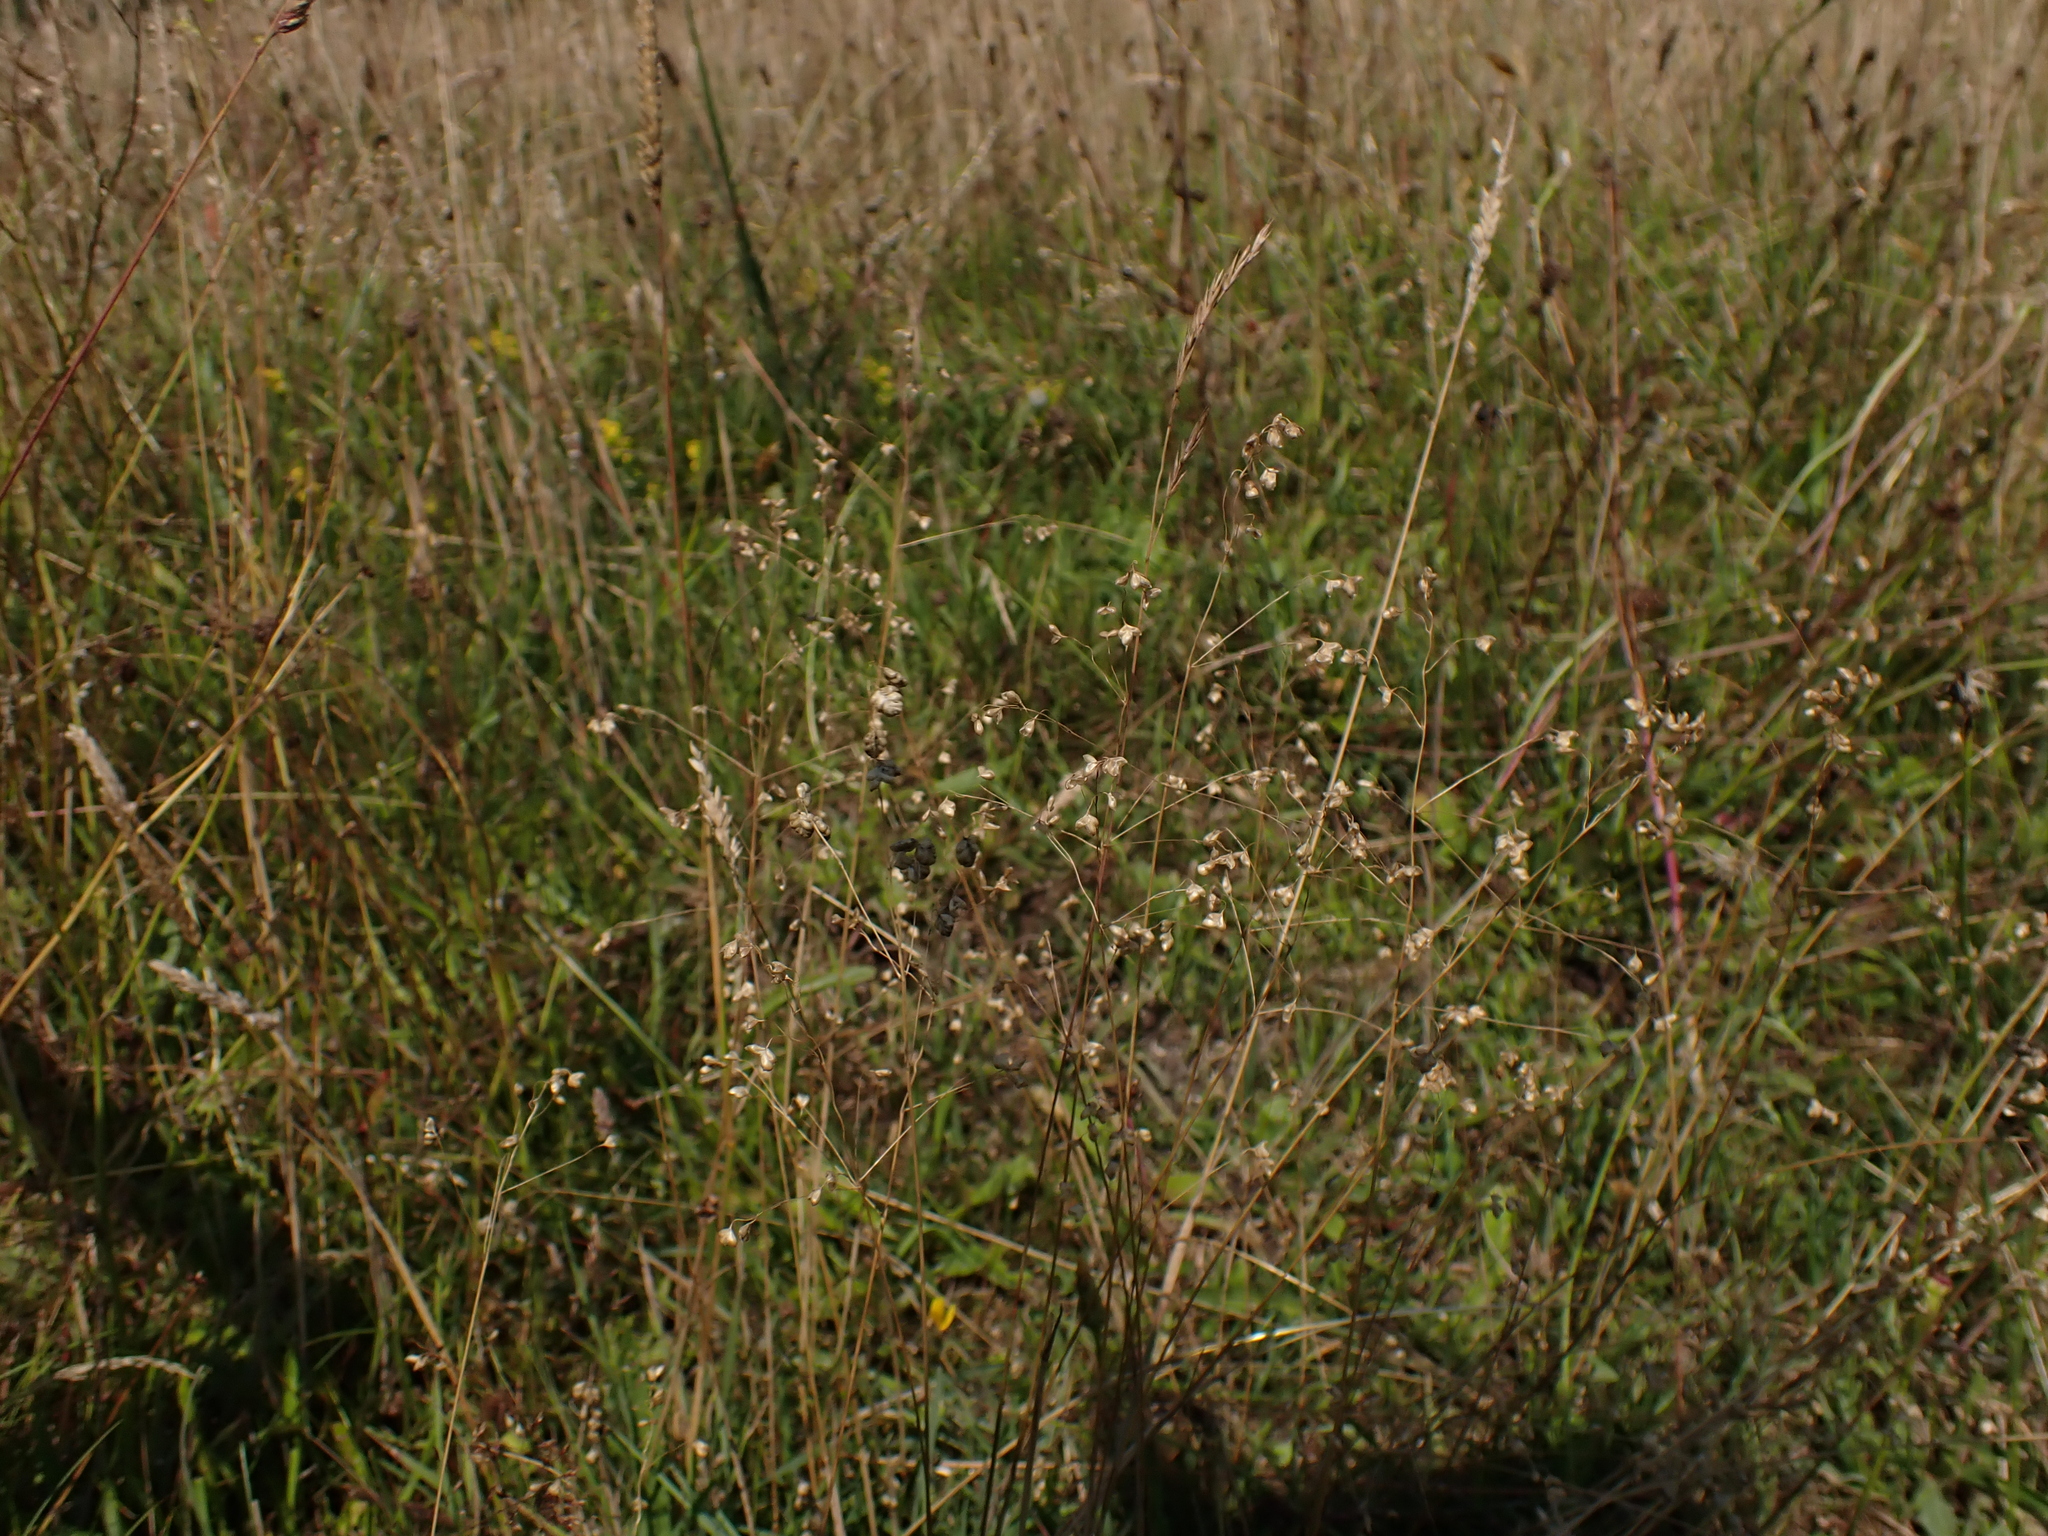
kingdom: Plantae
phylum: Tracheophyta
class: Liliopsida
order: Poales
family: Poaceae
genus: Briza
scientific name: Briza media
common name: Quaking grass
